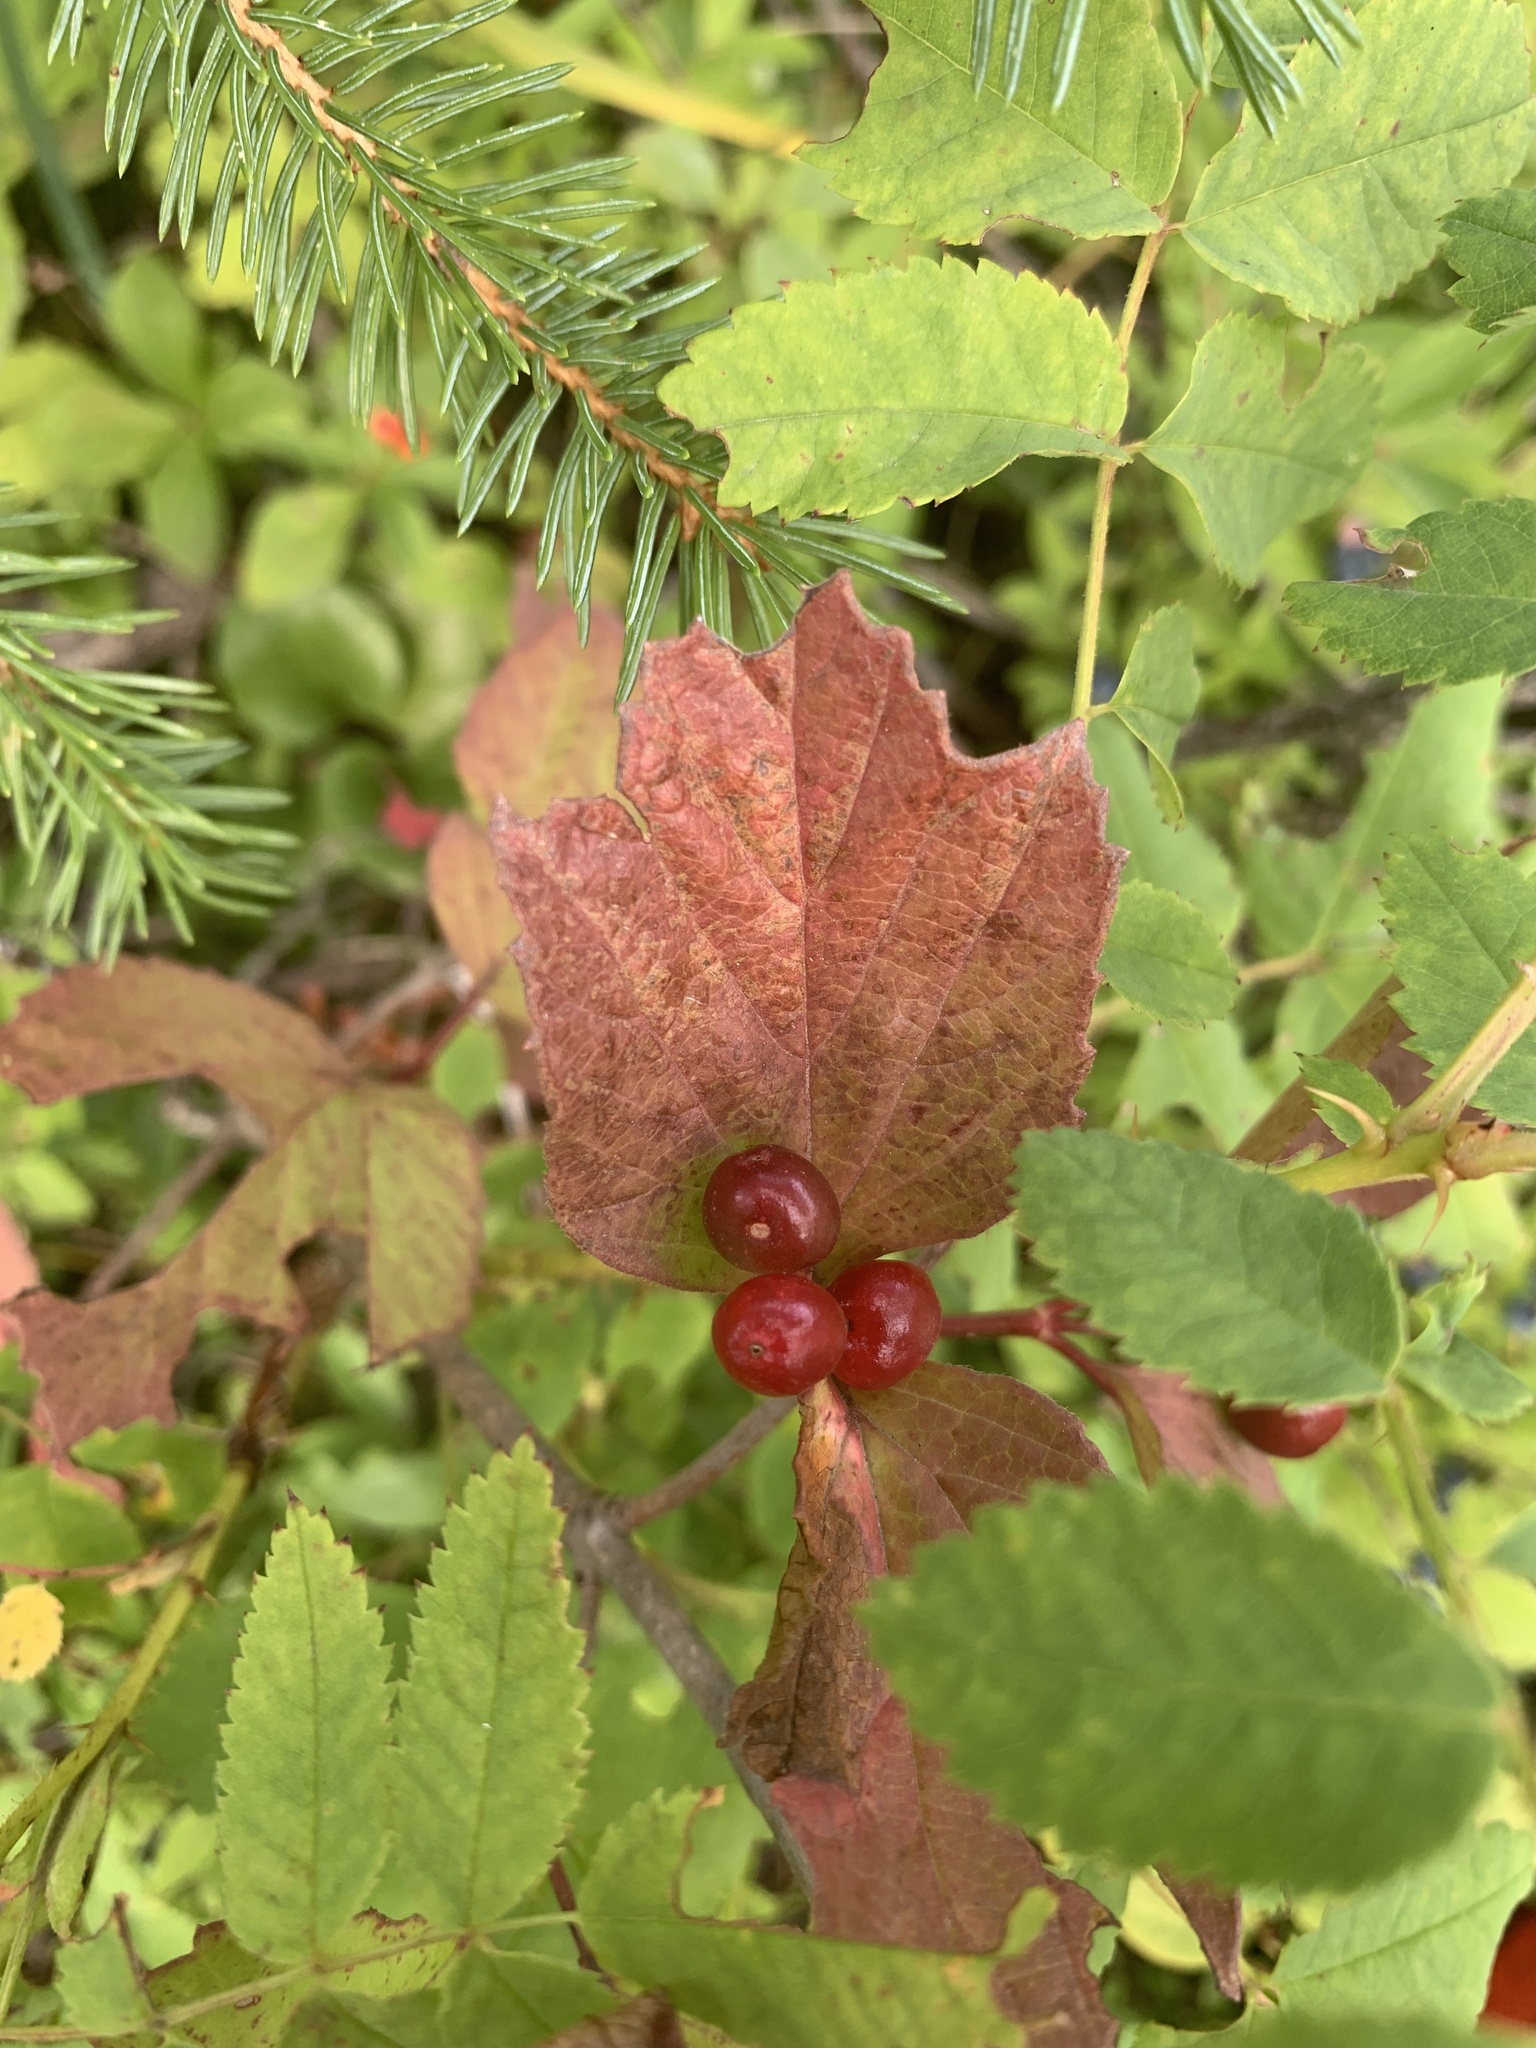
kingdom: Plantae
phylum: Tracheophyta
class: Magnoliopsida
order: Dipsacales
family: Viburnaceae
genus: Viburnum
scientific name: Viburnum edule
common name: Mooseberry
